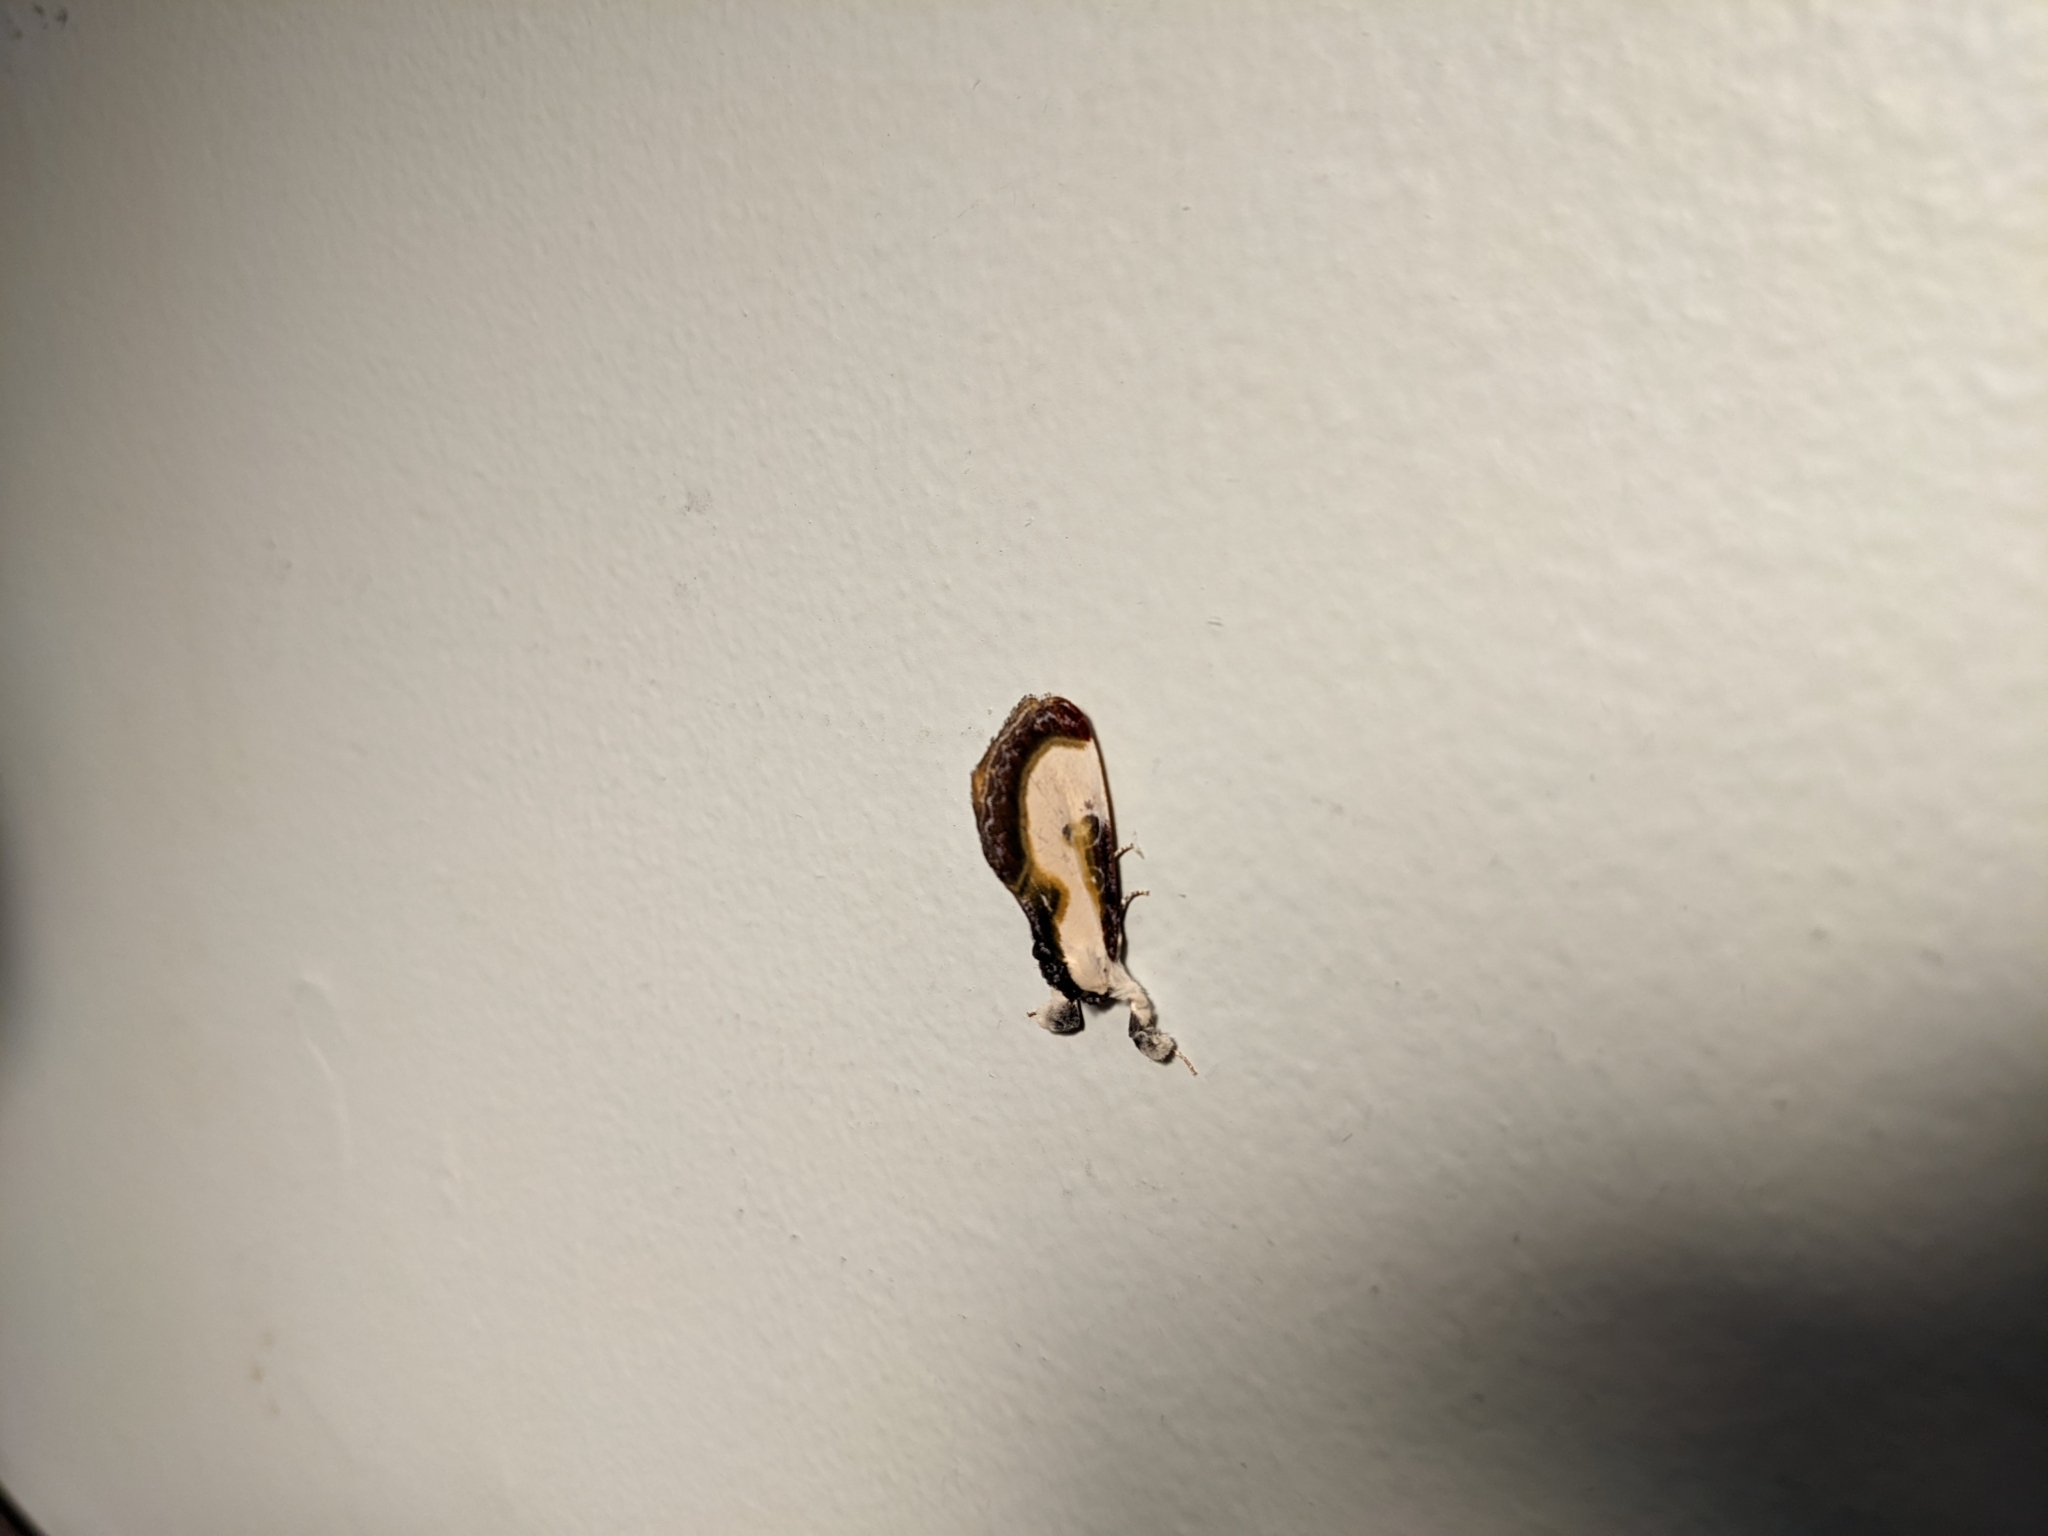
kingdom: Animalia
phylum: Arthropoda
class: Insecta
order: Lepidoptera
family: Noctuidae
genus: Eudryas
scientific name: Eudryas grata
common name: Beautiful wood-nymph
